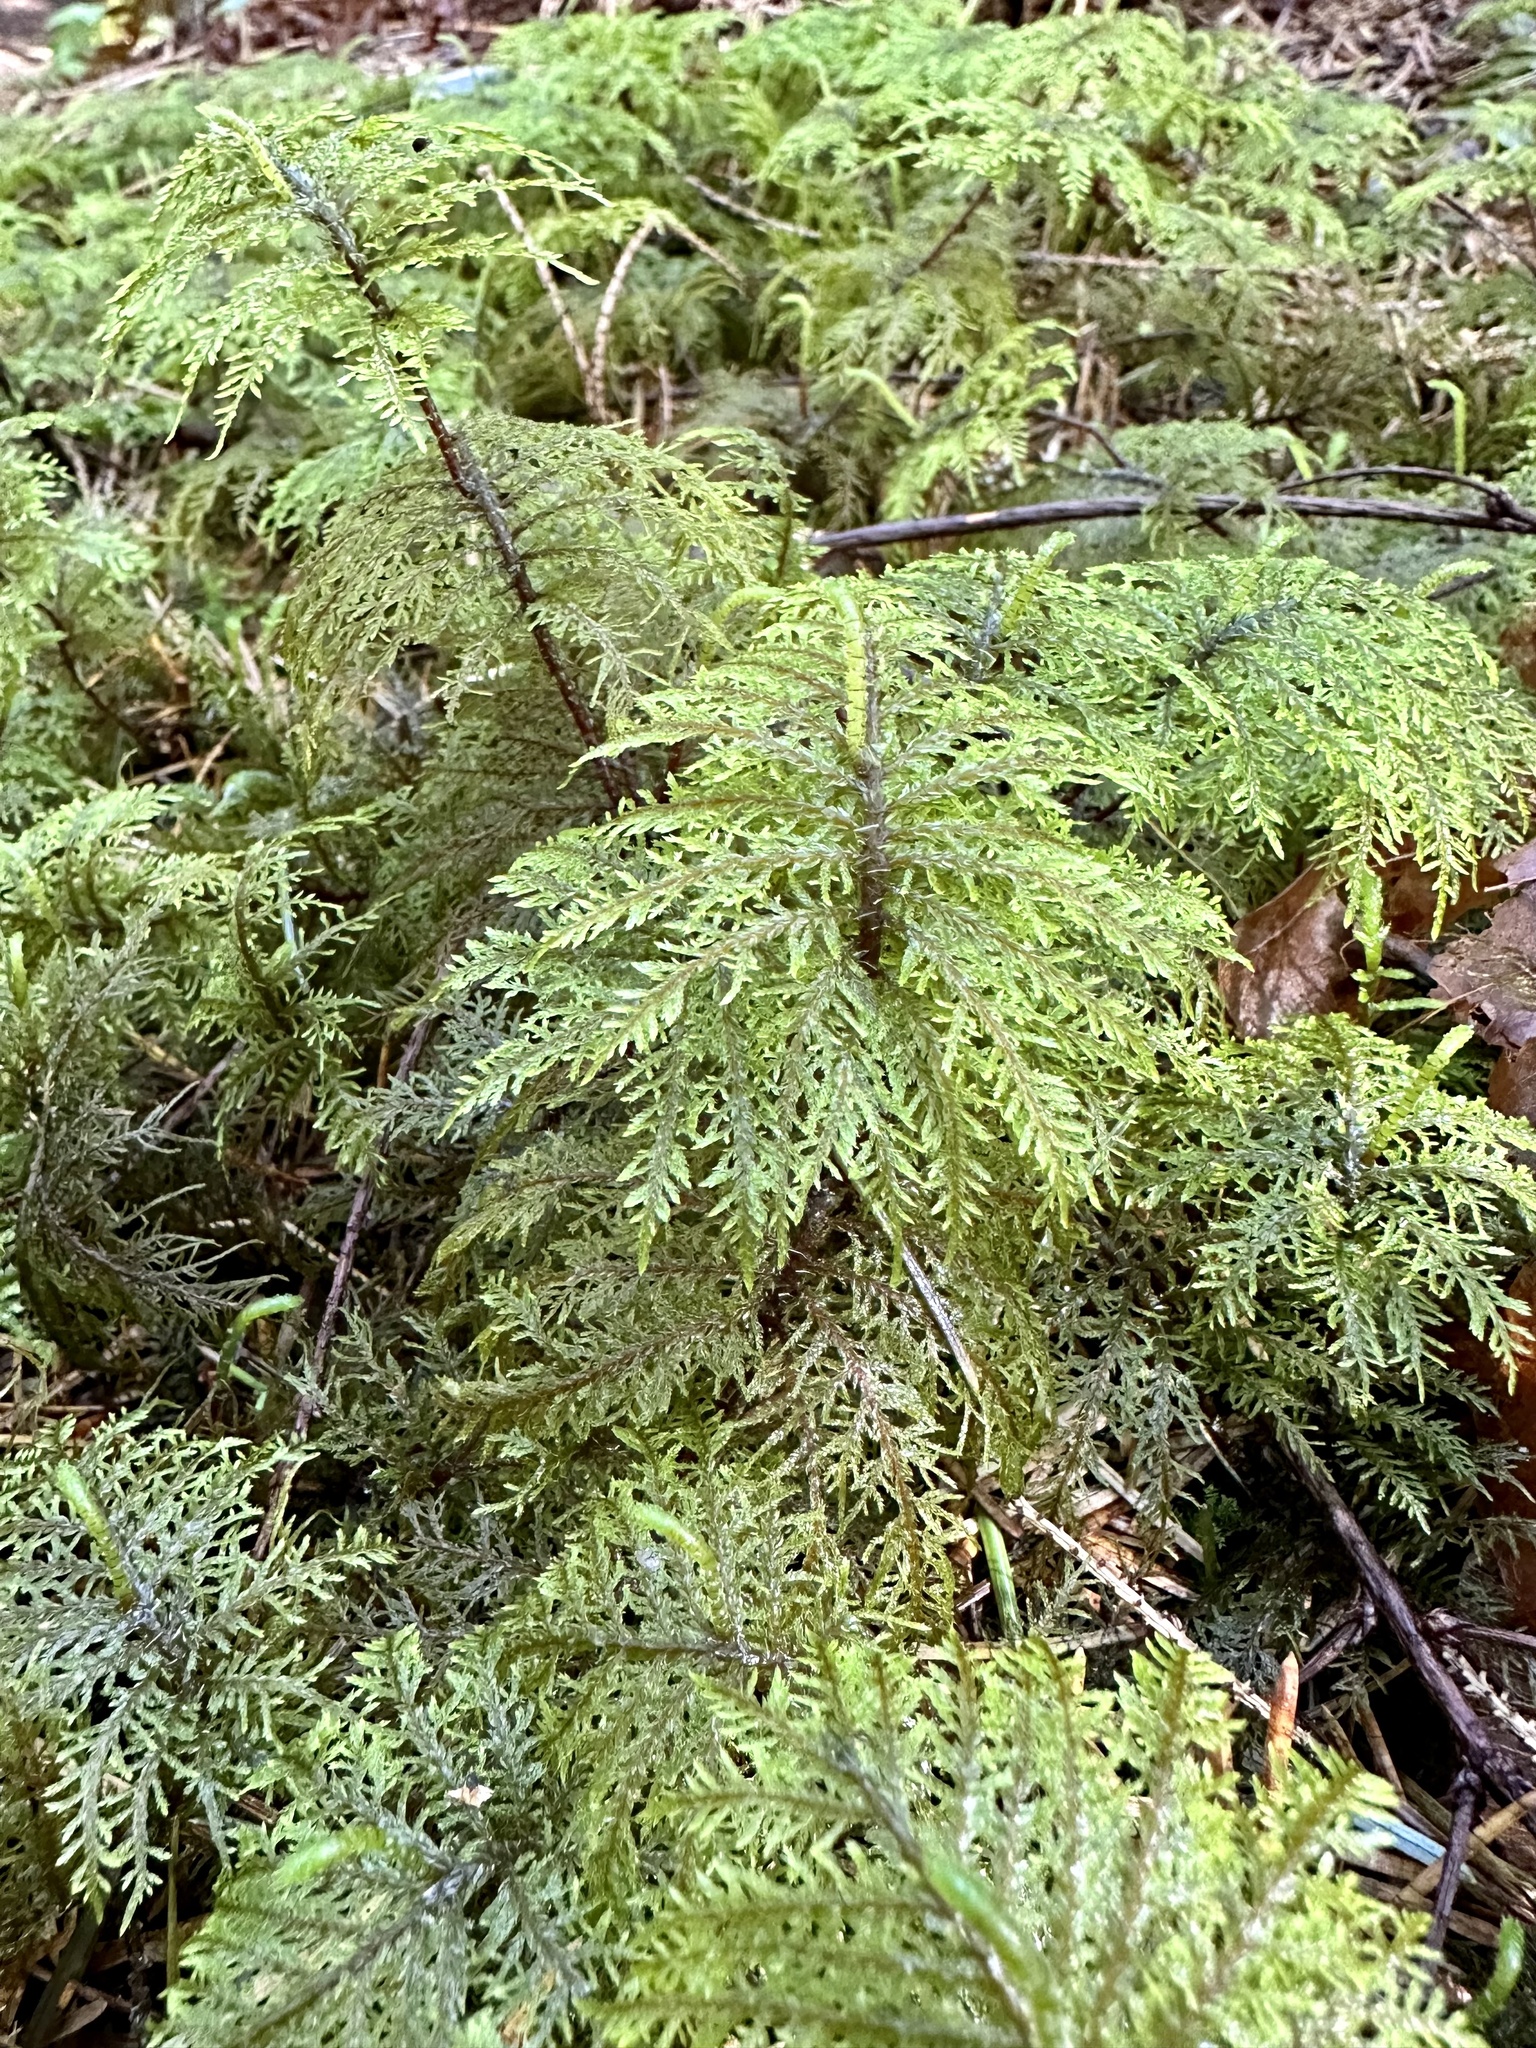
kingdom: Plantae
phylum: Bryophyta
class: Bryopsida
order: Hypnales
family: Hylocomiaceae
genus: Hylocomium
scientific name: Hylocomium splendens
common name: Stairstep moss
